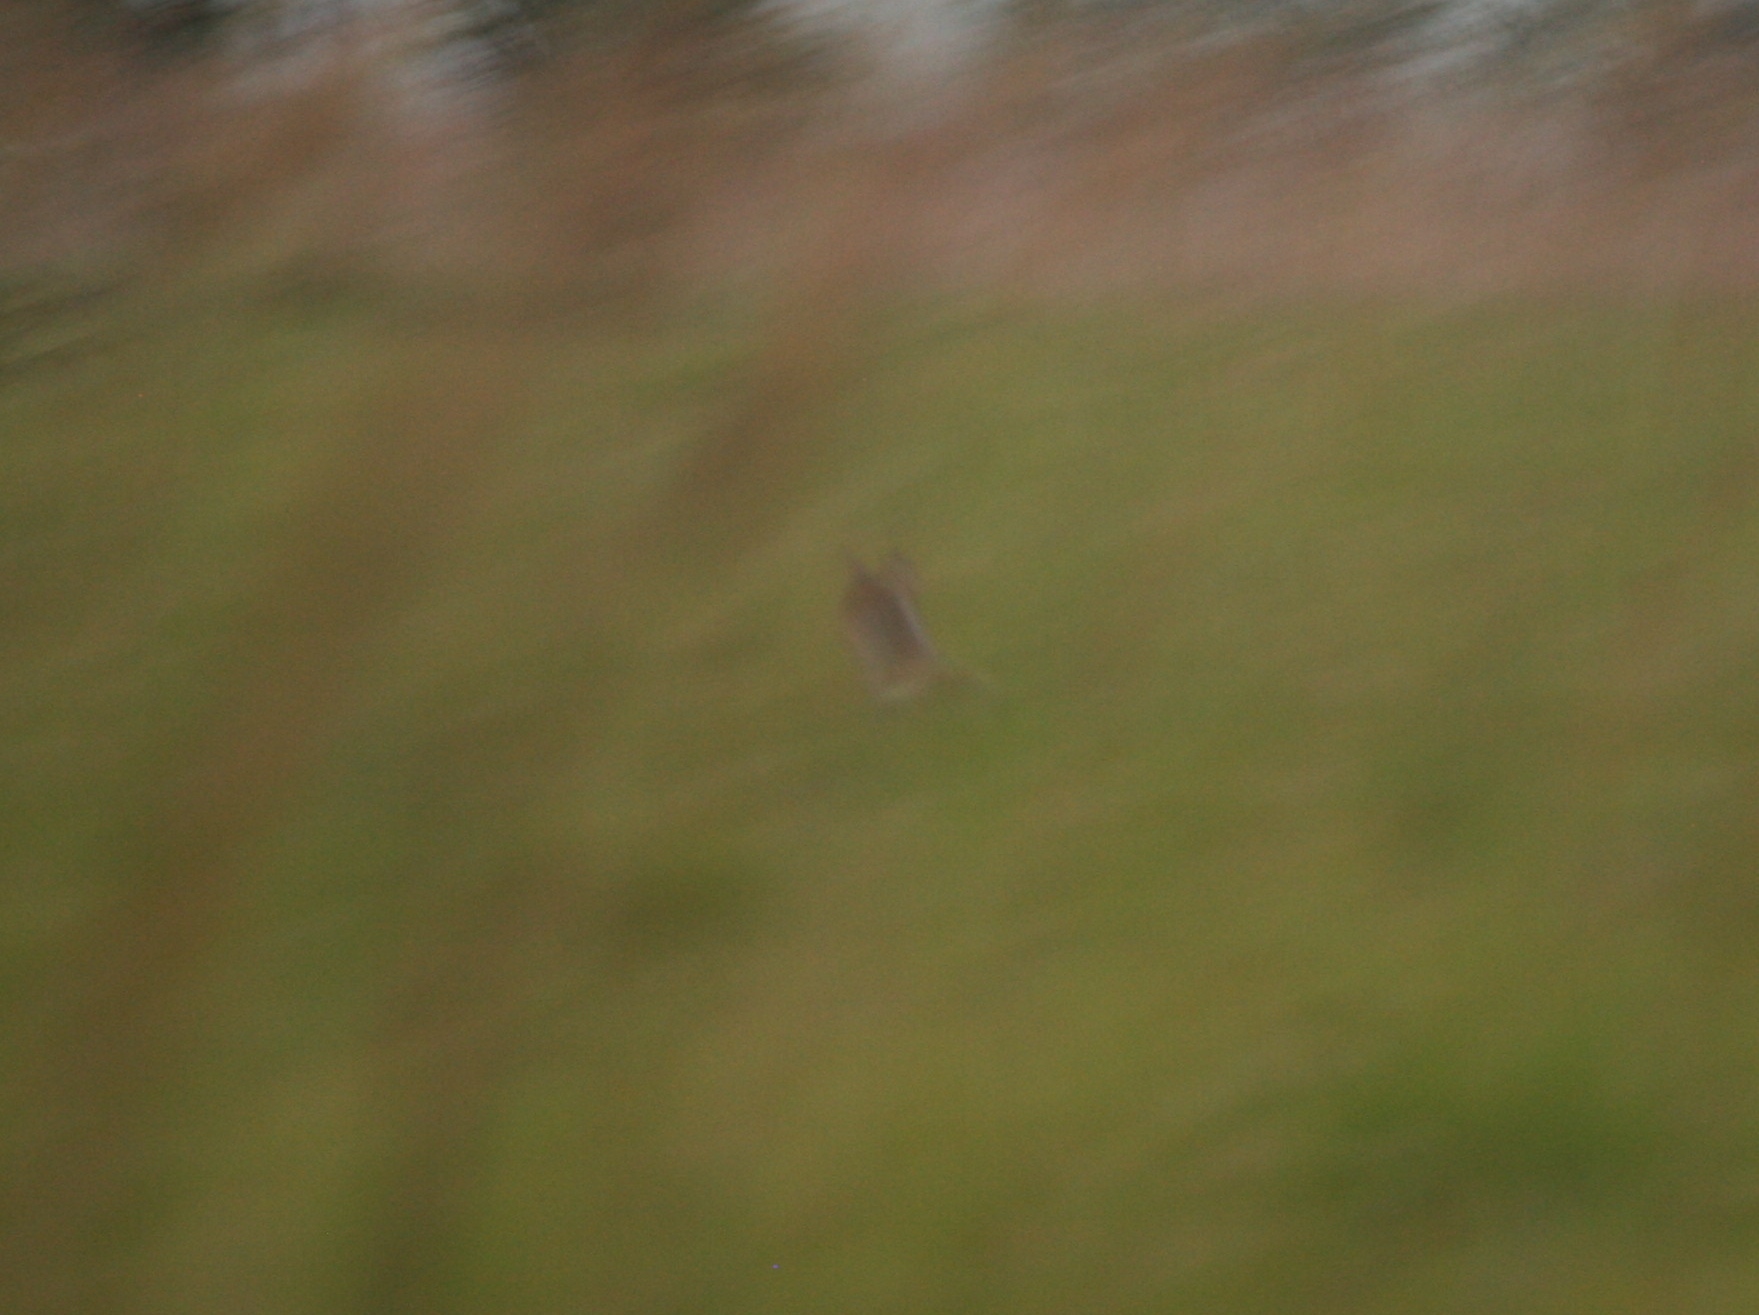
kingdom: Animalia
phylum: Chordata
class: Mammalia
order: Carnivora
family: Canidae
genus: Lupulella
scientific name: Lupulella
